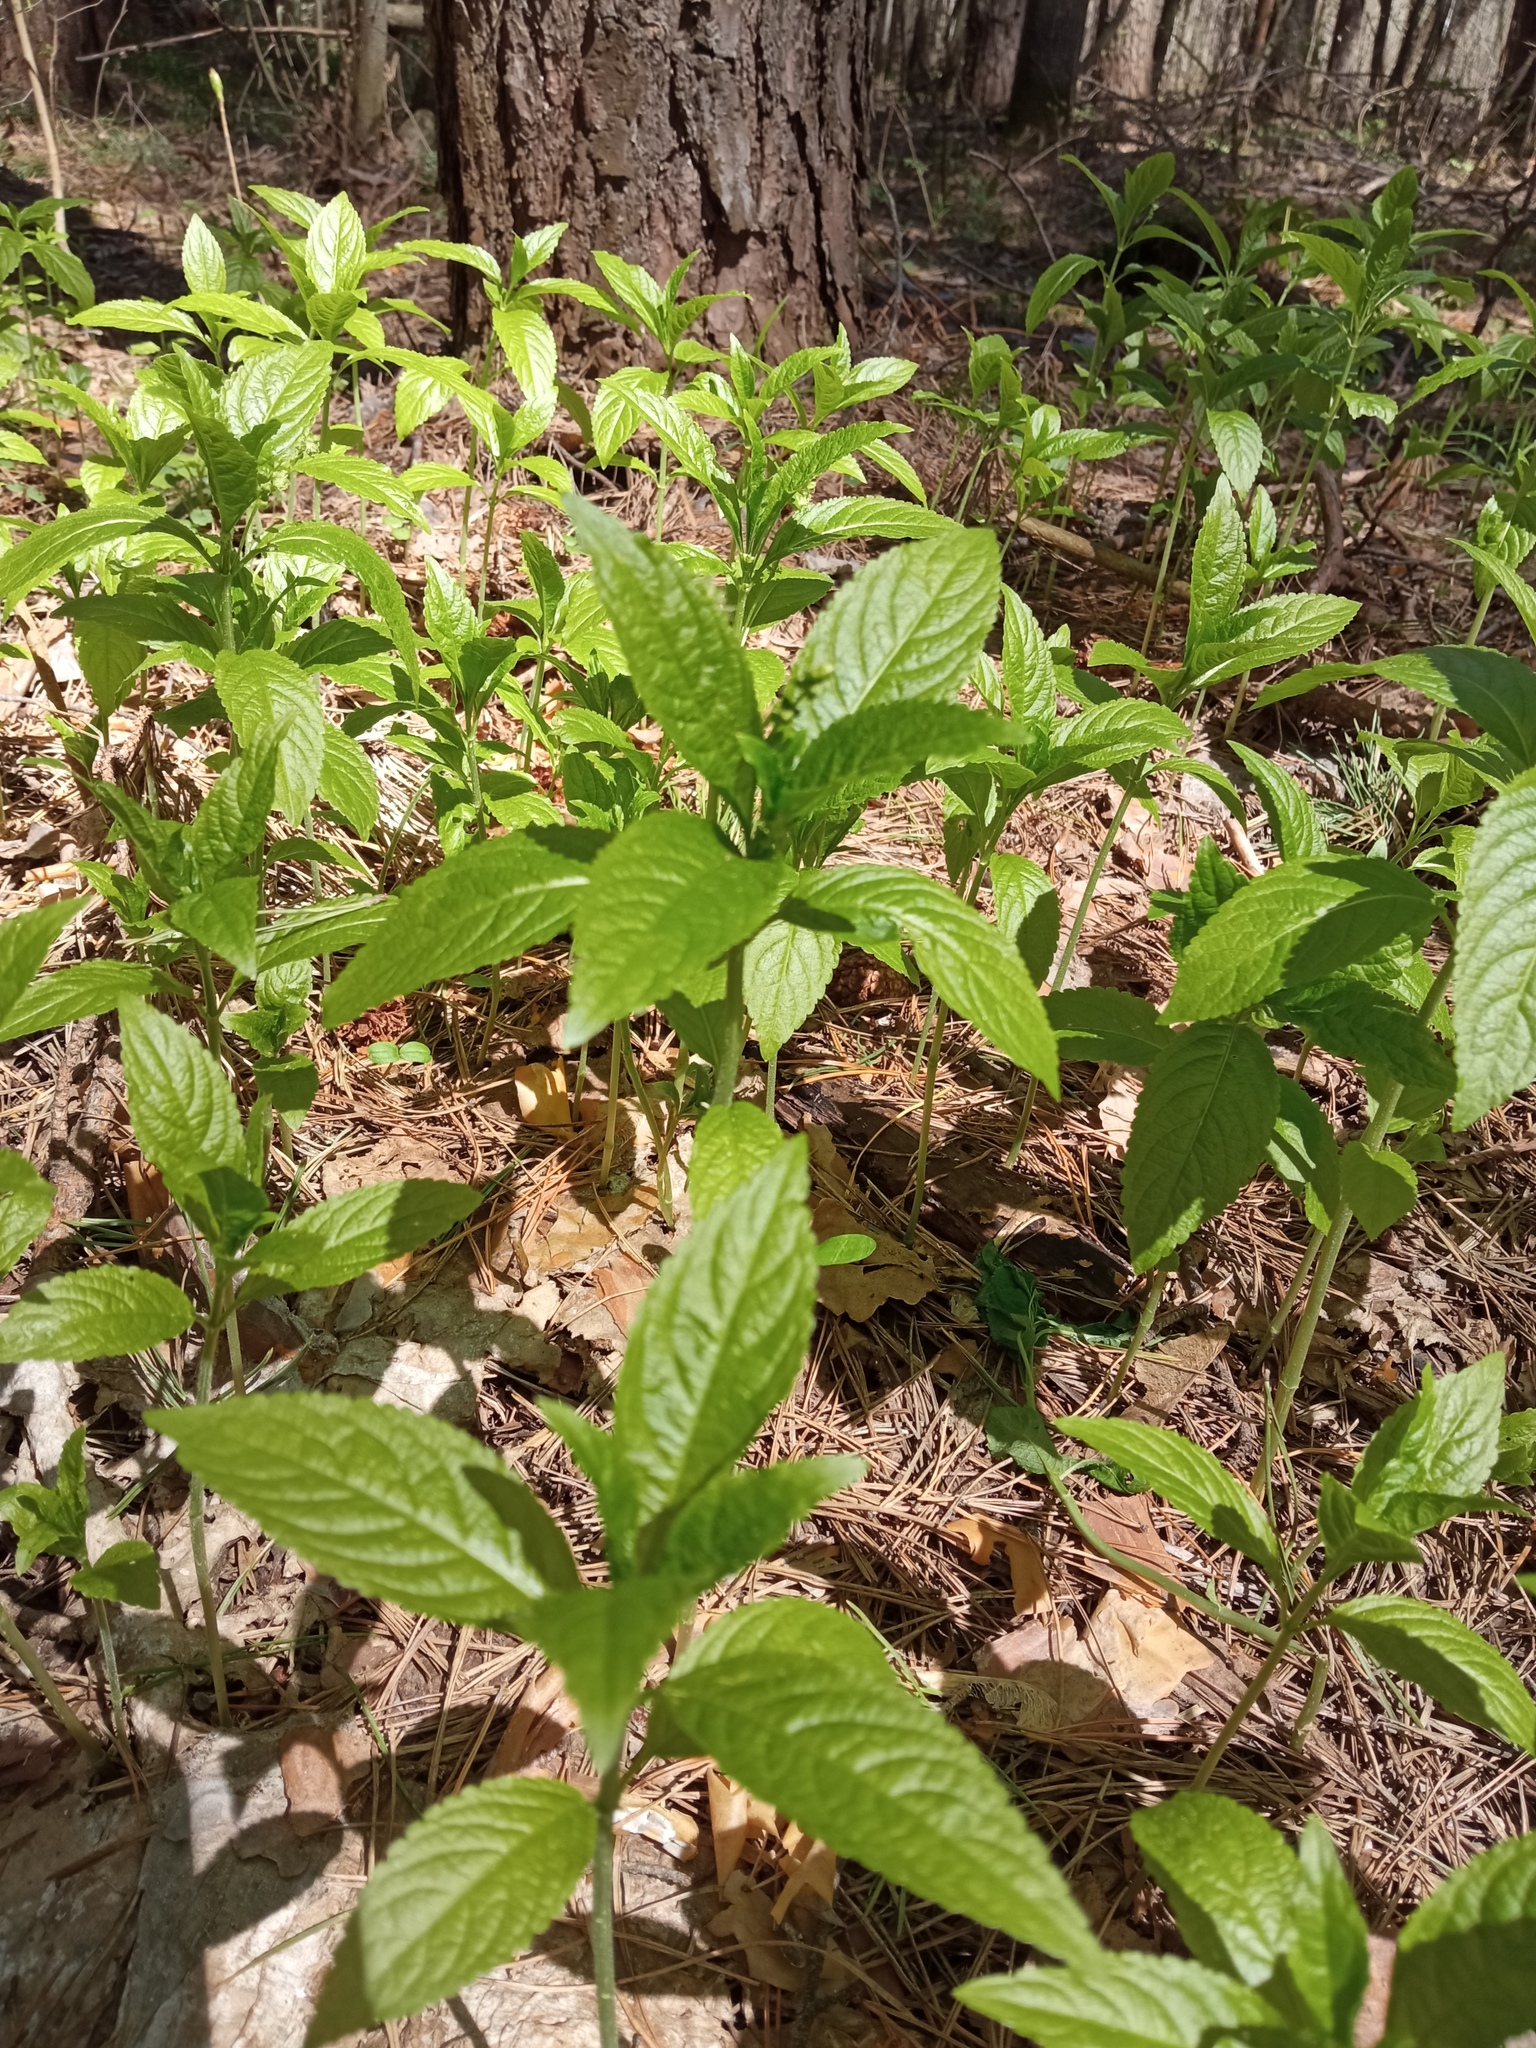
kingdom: Plantae
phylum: Tracheophyta
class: Magnoliopsida
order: Malpighiales
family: Euphorbiaceae
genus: Mercurialis
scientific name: Mercurialis perennis
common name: Dog mercury
